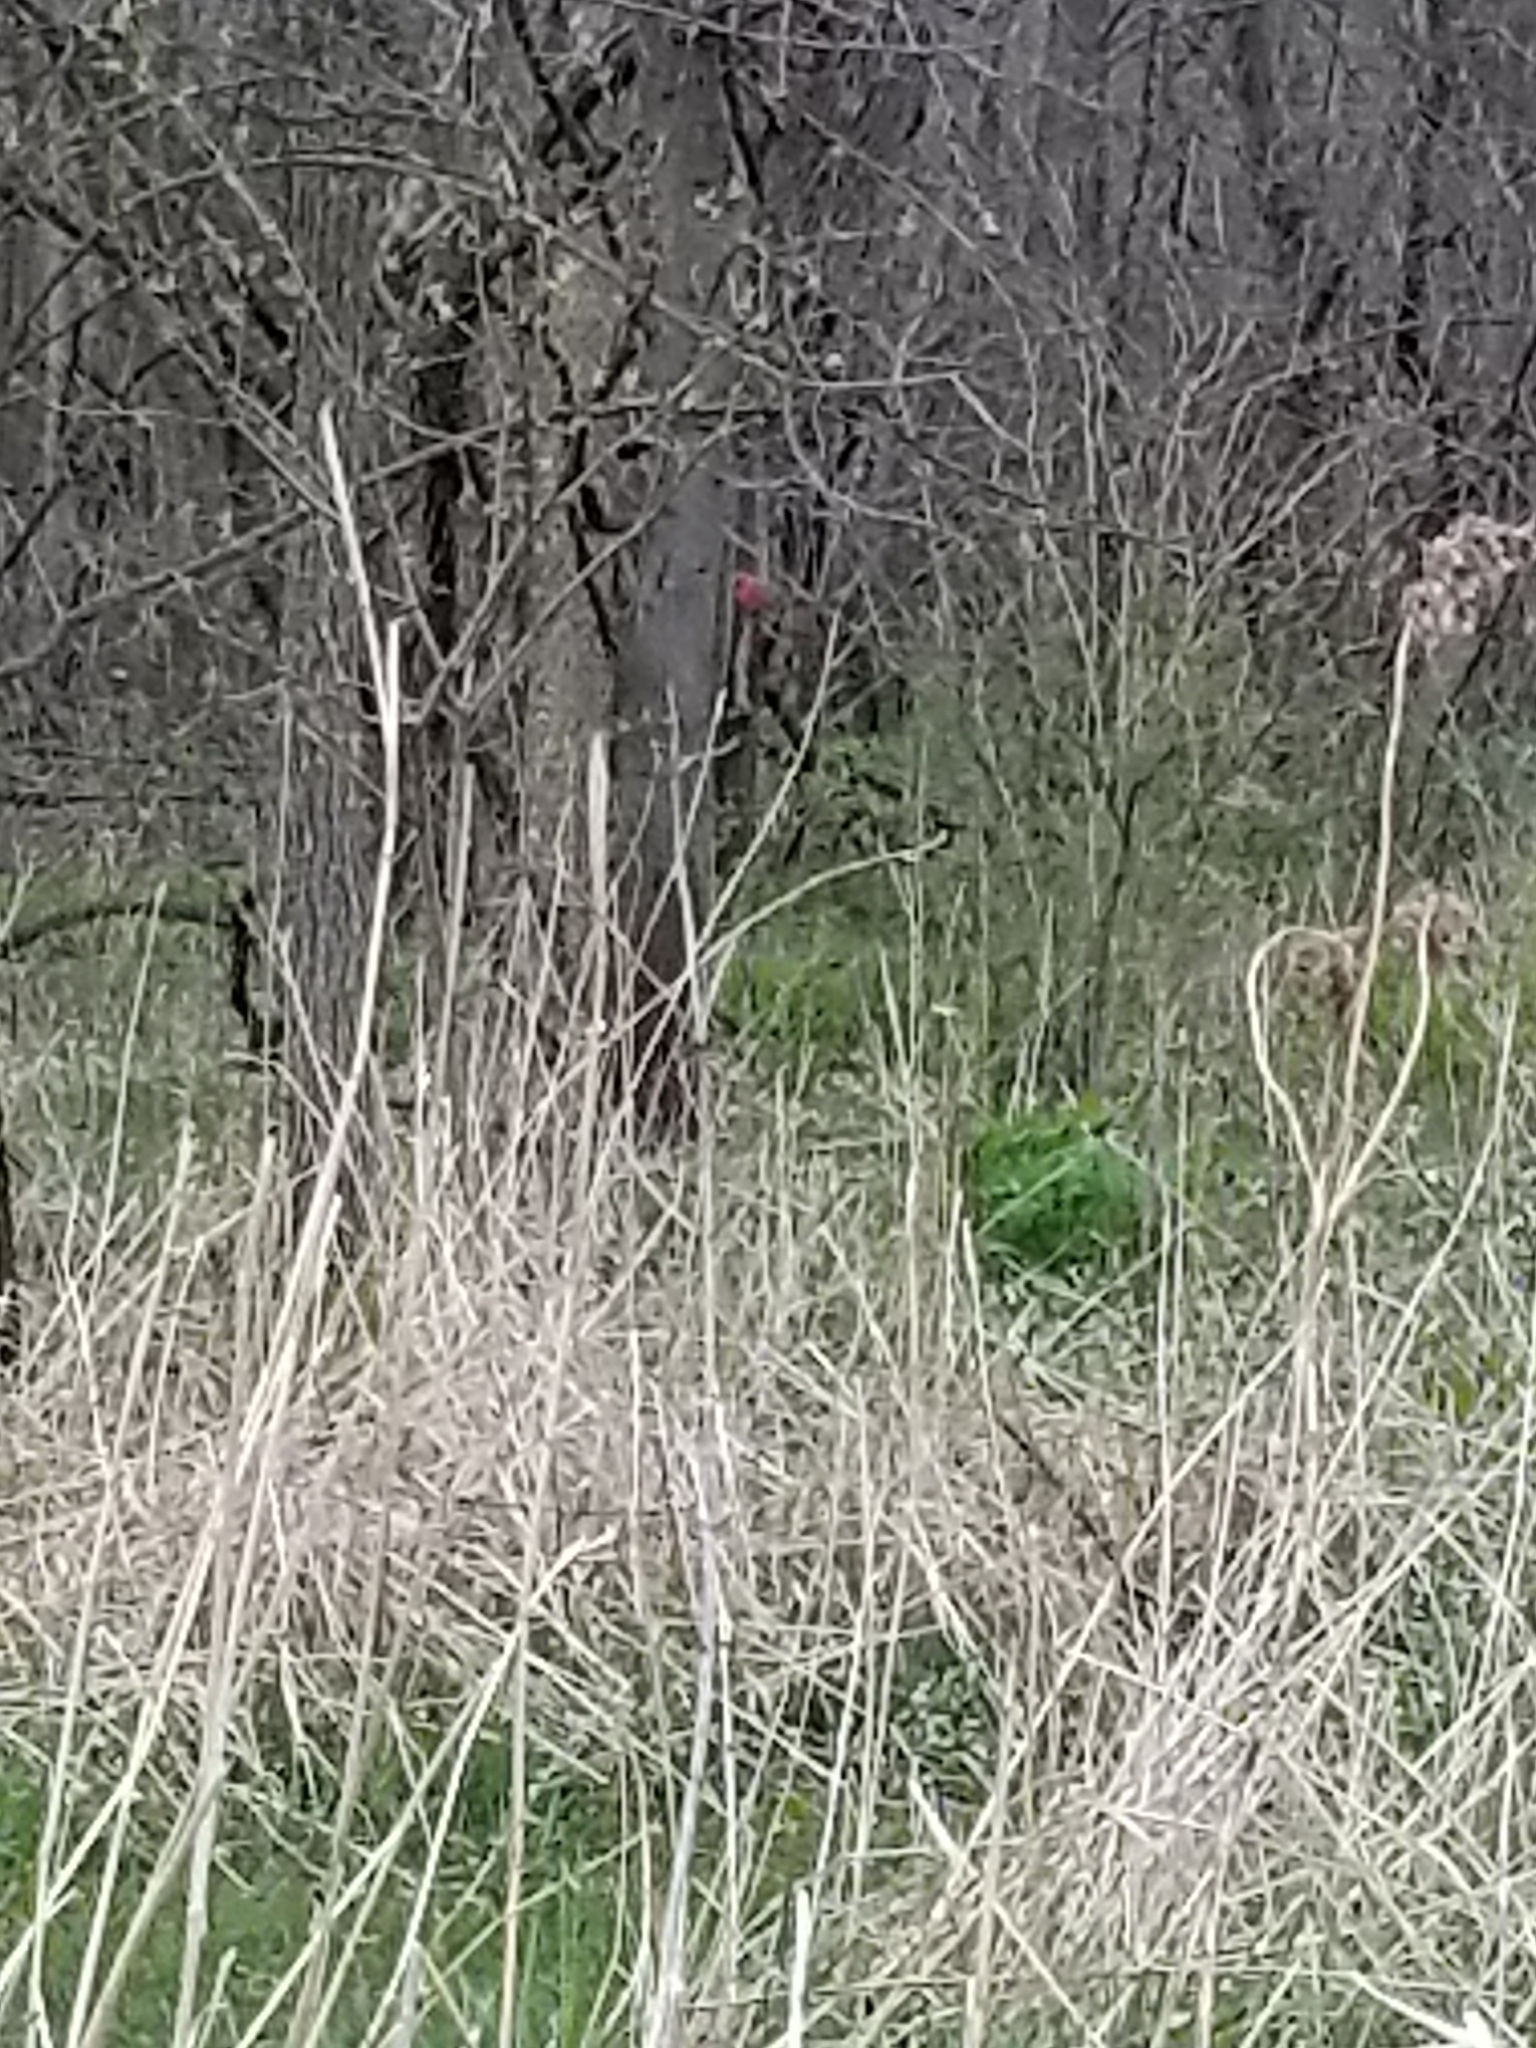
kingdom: Animalia
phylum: Chordata
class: Aves
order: Passeriformes
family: Cardinalidae
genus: Cardinalis
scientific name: Cardinalis cardinalis
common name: Northern cardinal
